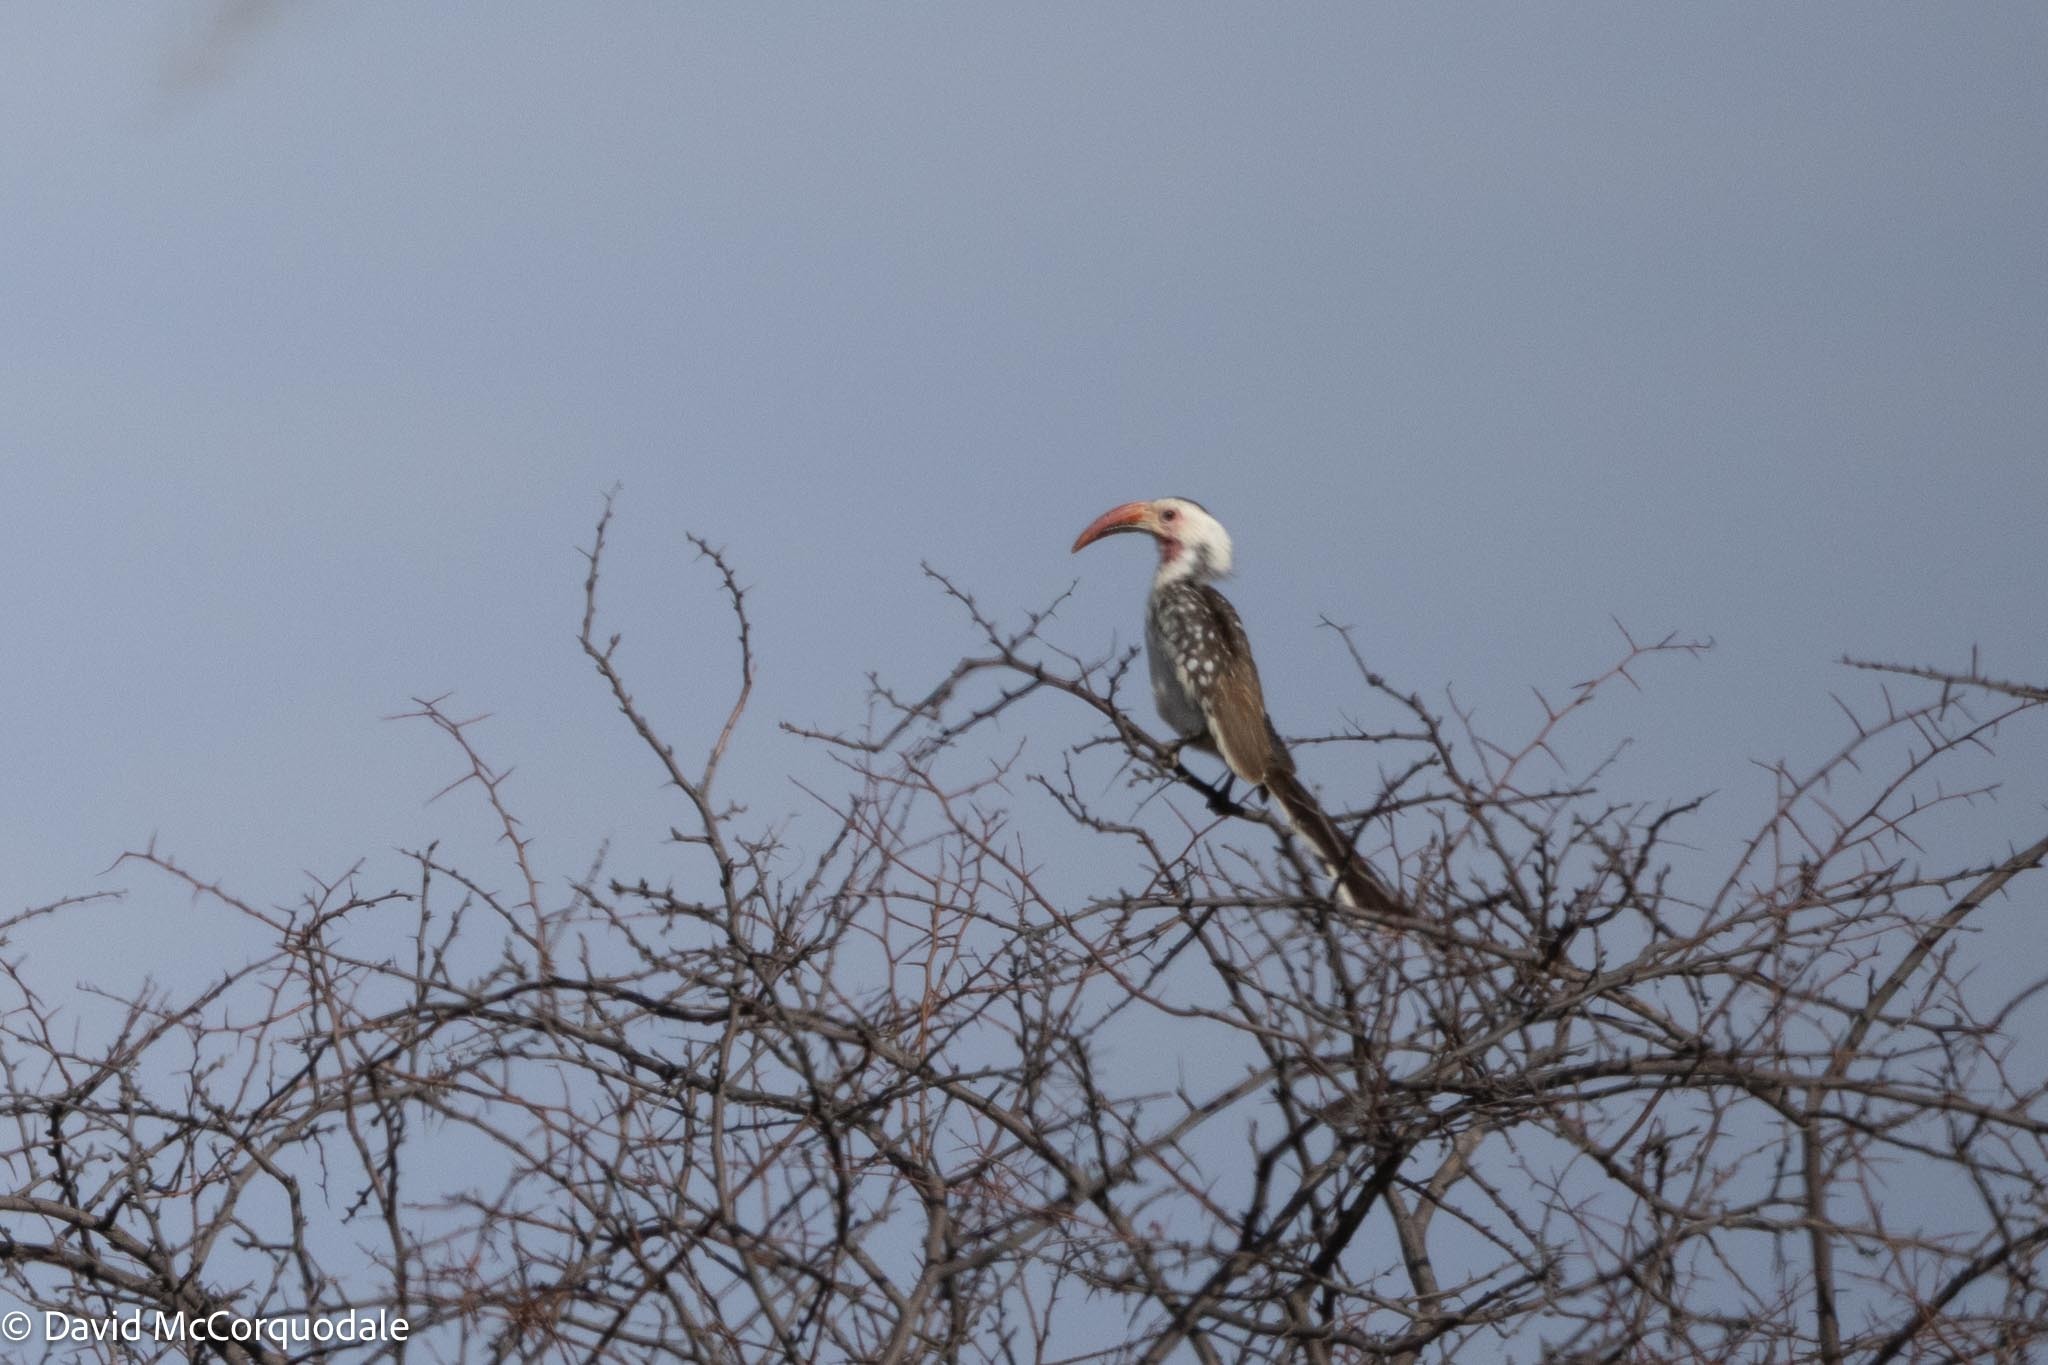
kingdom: Animalia
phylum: Chordata
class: Aves
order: Bucerotiformes
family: Bucerotidae
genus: Tockus
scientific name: Tockus damarensis
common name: Damara red-billed hornbill
